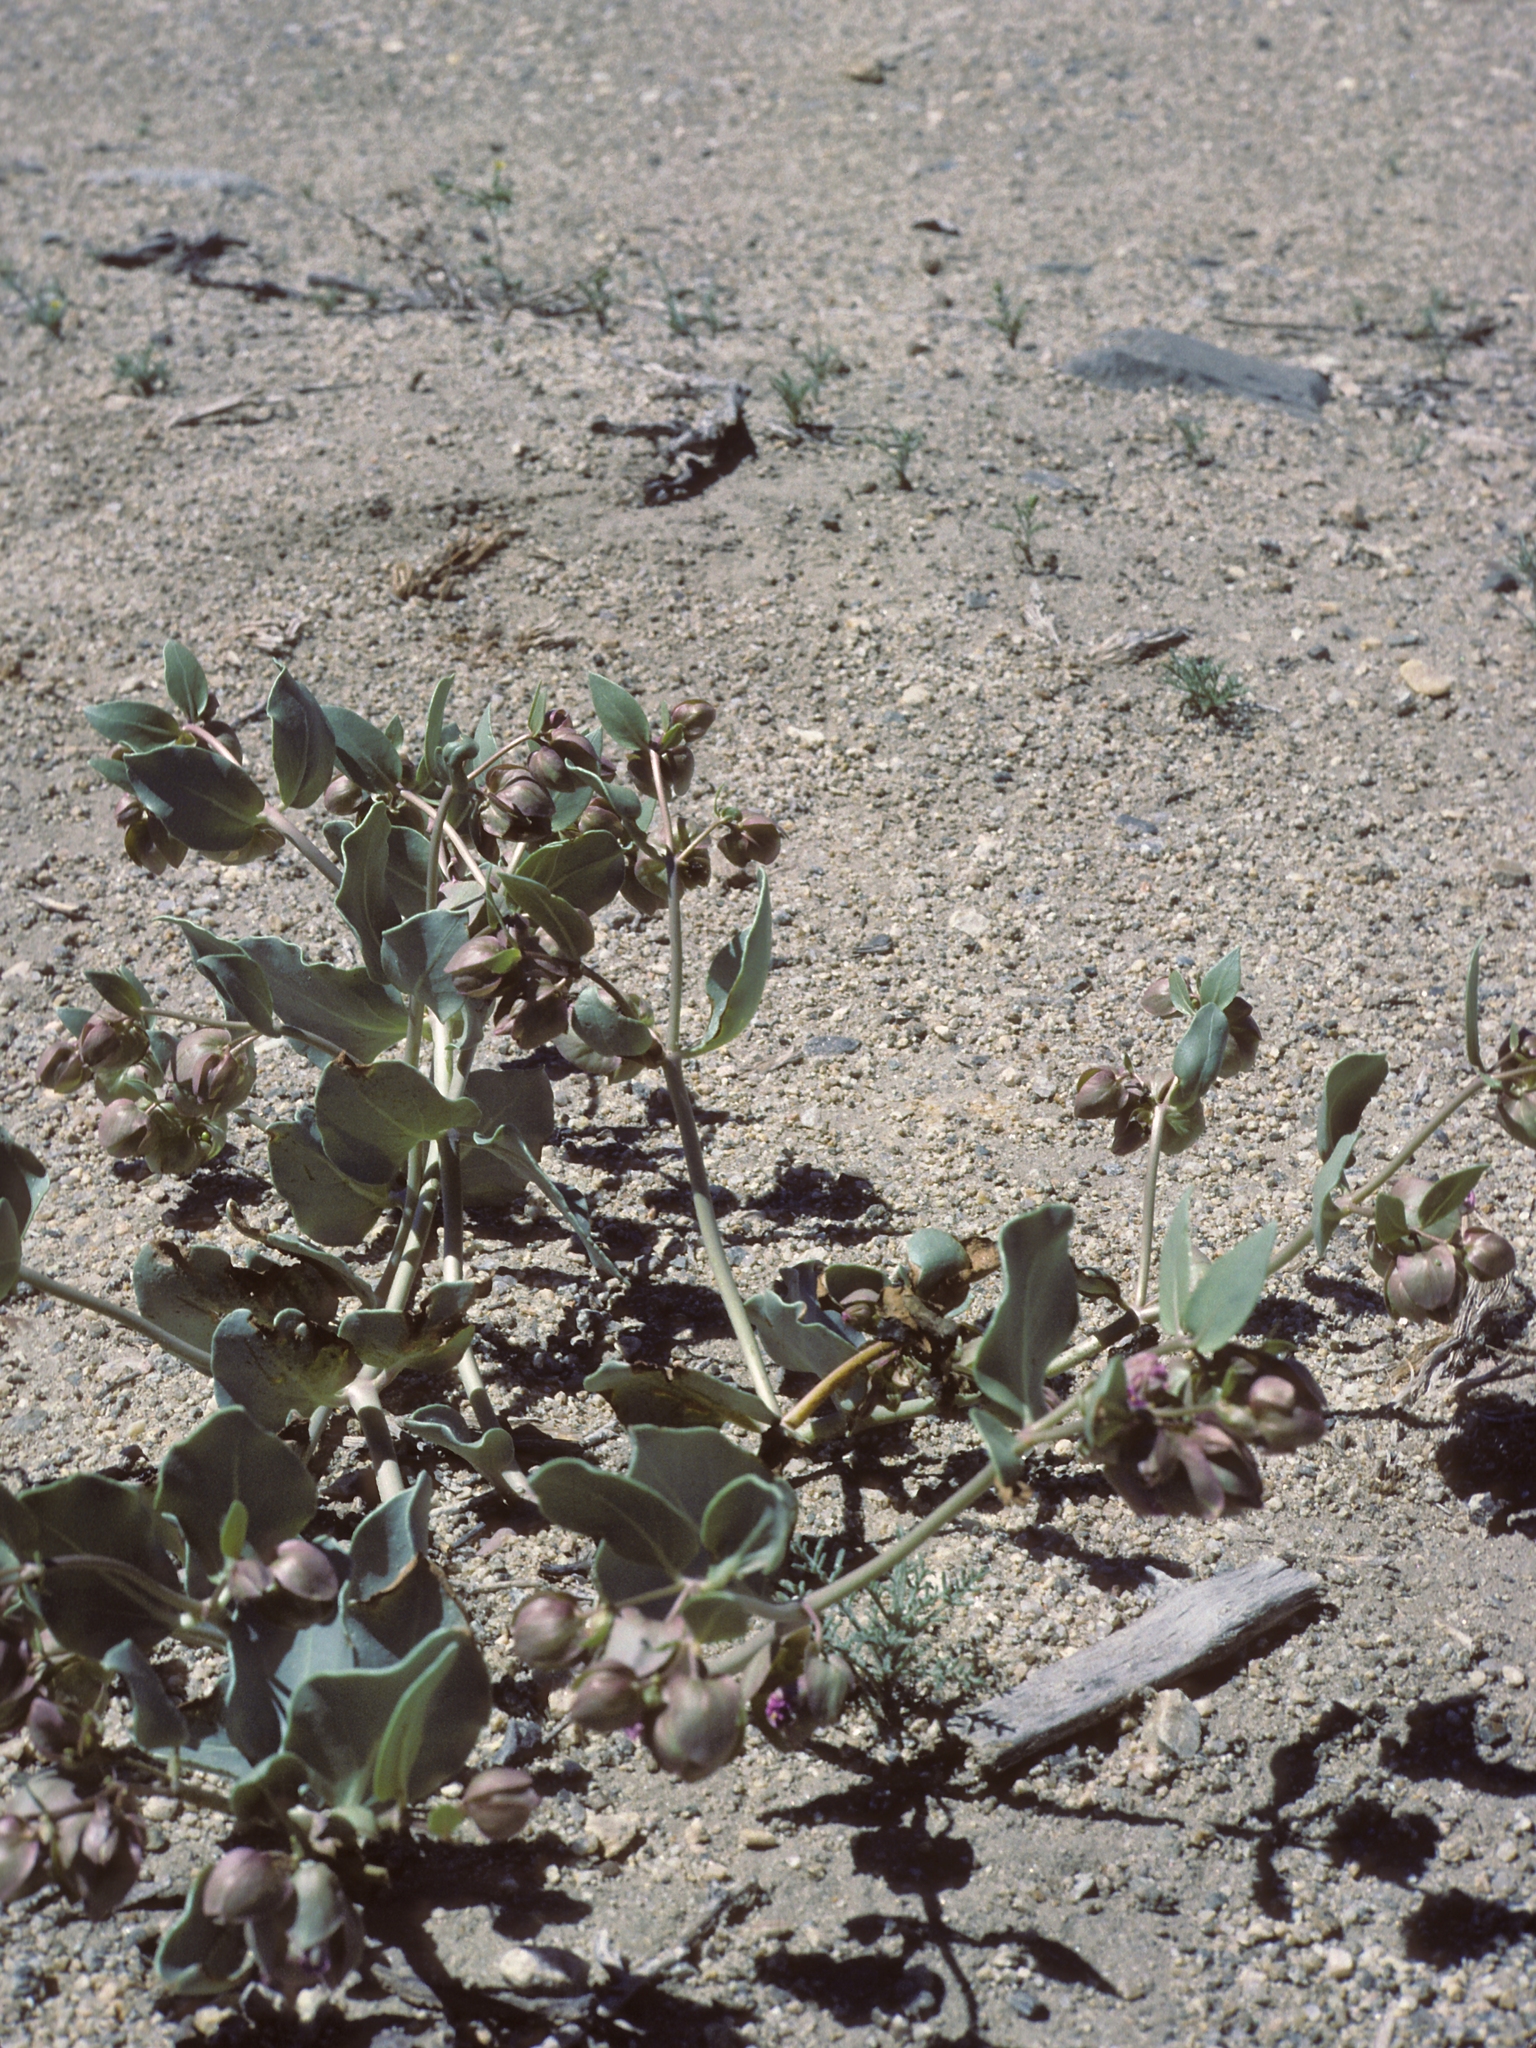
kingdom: Plantae
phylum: Tracheophyta
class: Magnoliopsida
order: Caryophyllales
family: Nyctaginaceae
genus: Mirabilis
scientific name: Mirabilis alipes
